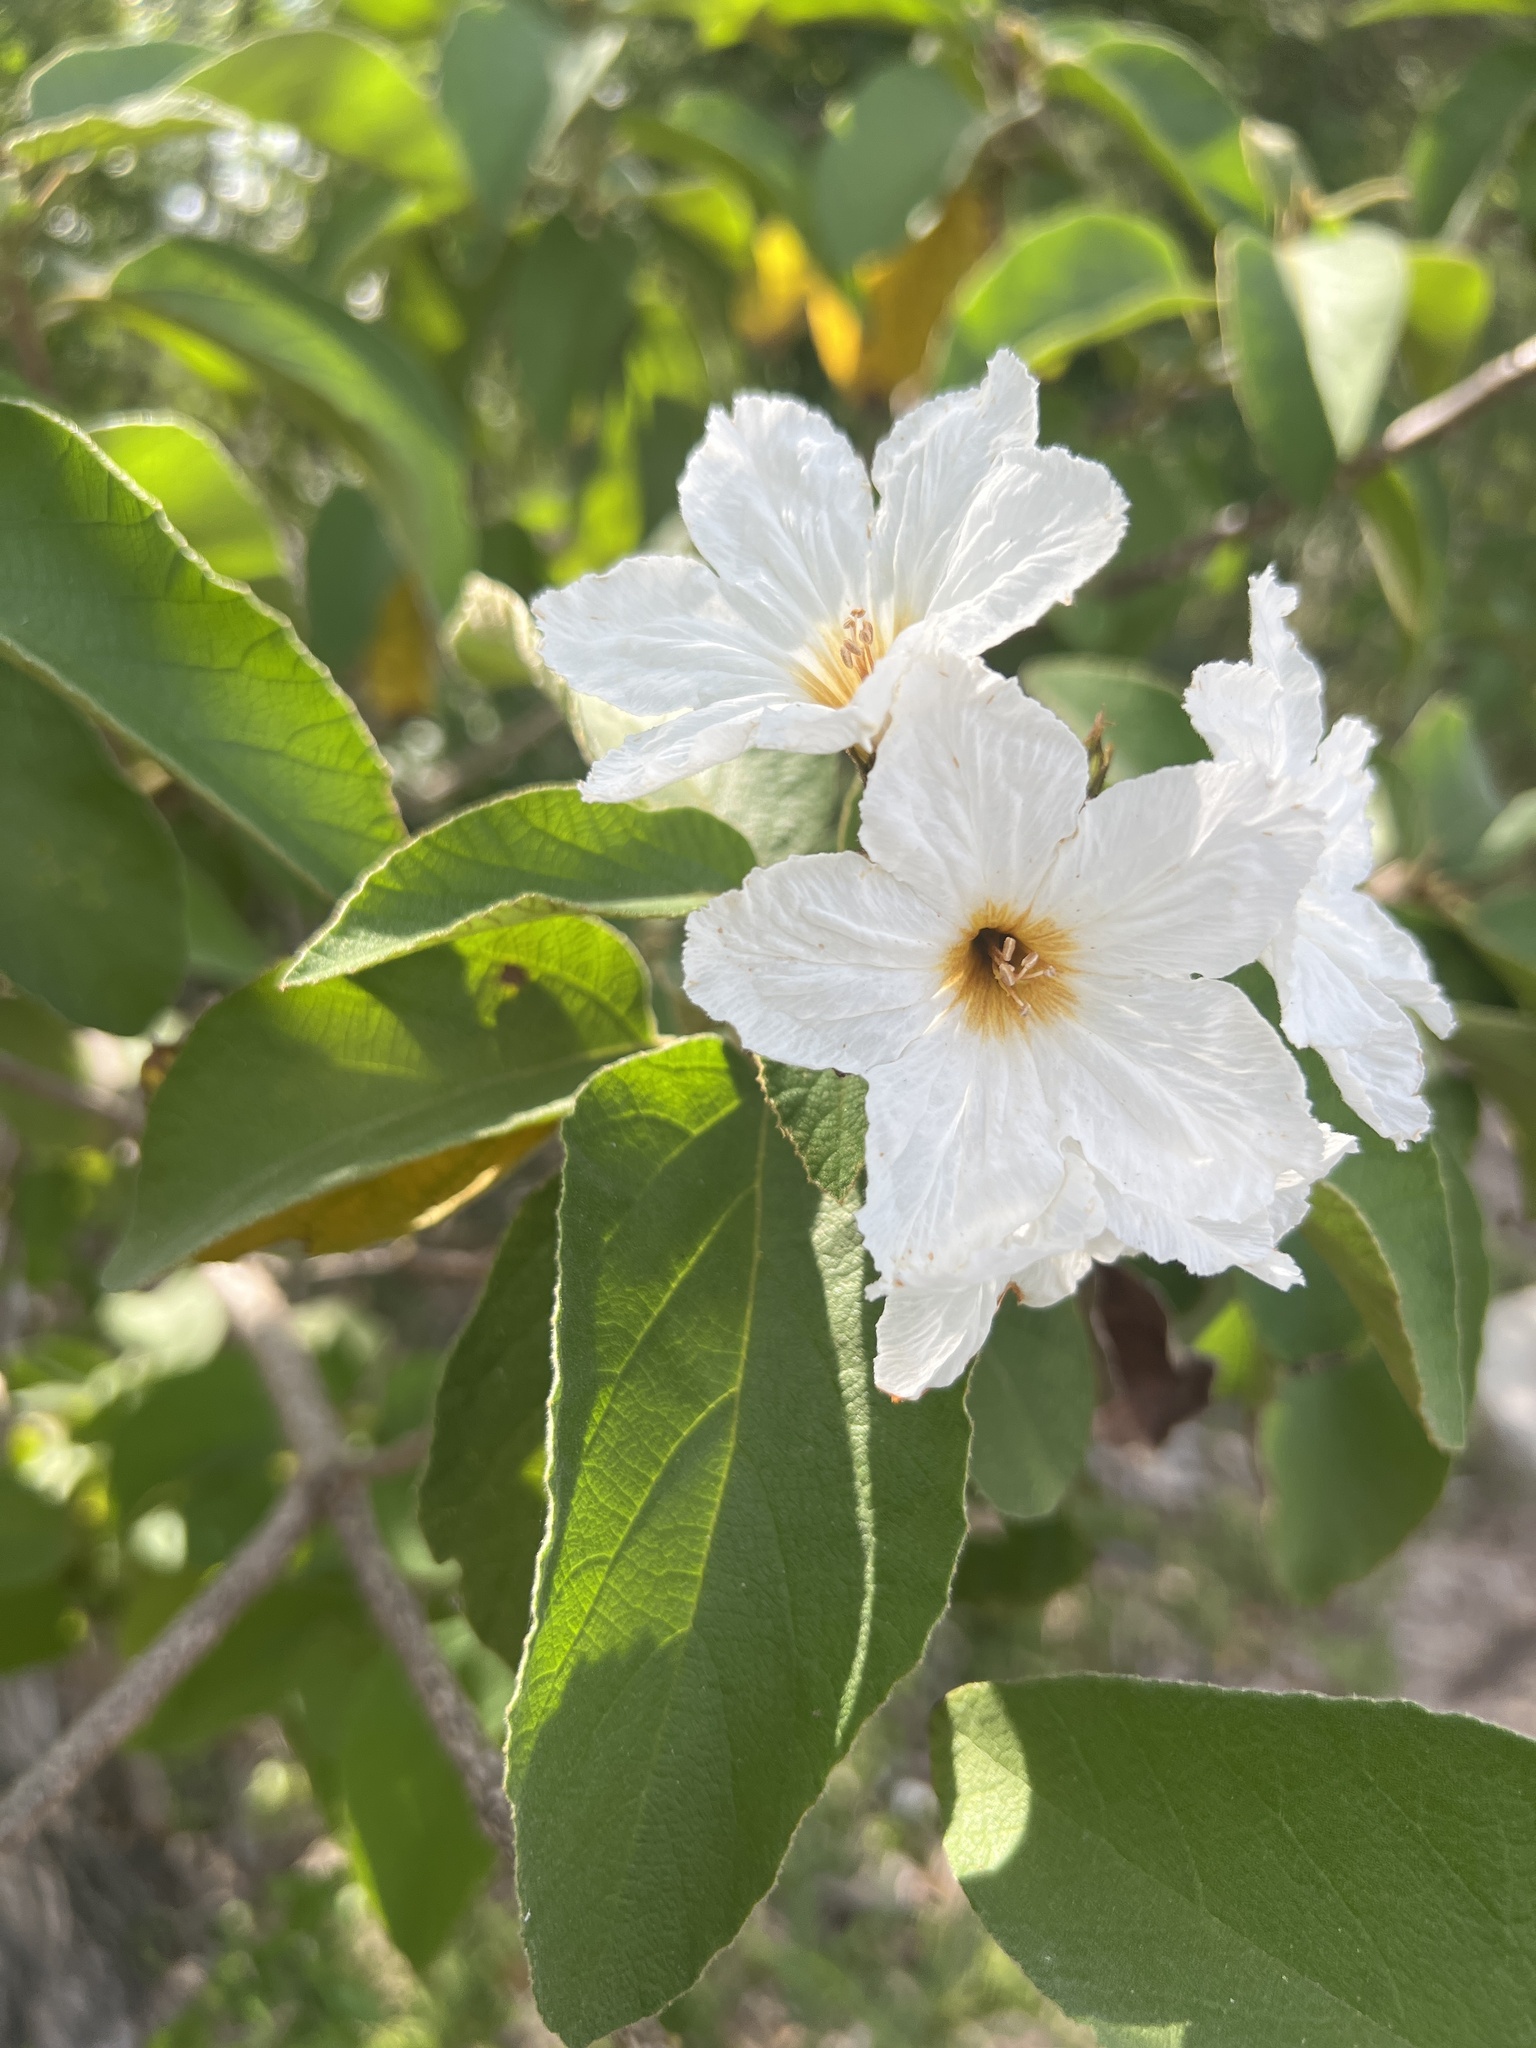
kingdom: Plantae
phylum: Tracheophyta
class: Magnoliopsida
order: Boraginales
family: Cordiaceae
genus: Cordia
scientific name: Cordia boissieri
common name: Mexican-olive
